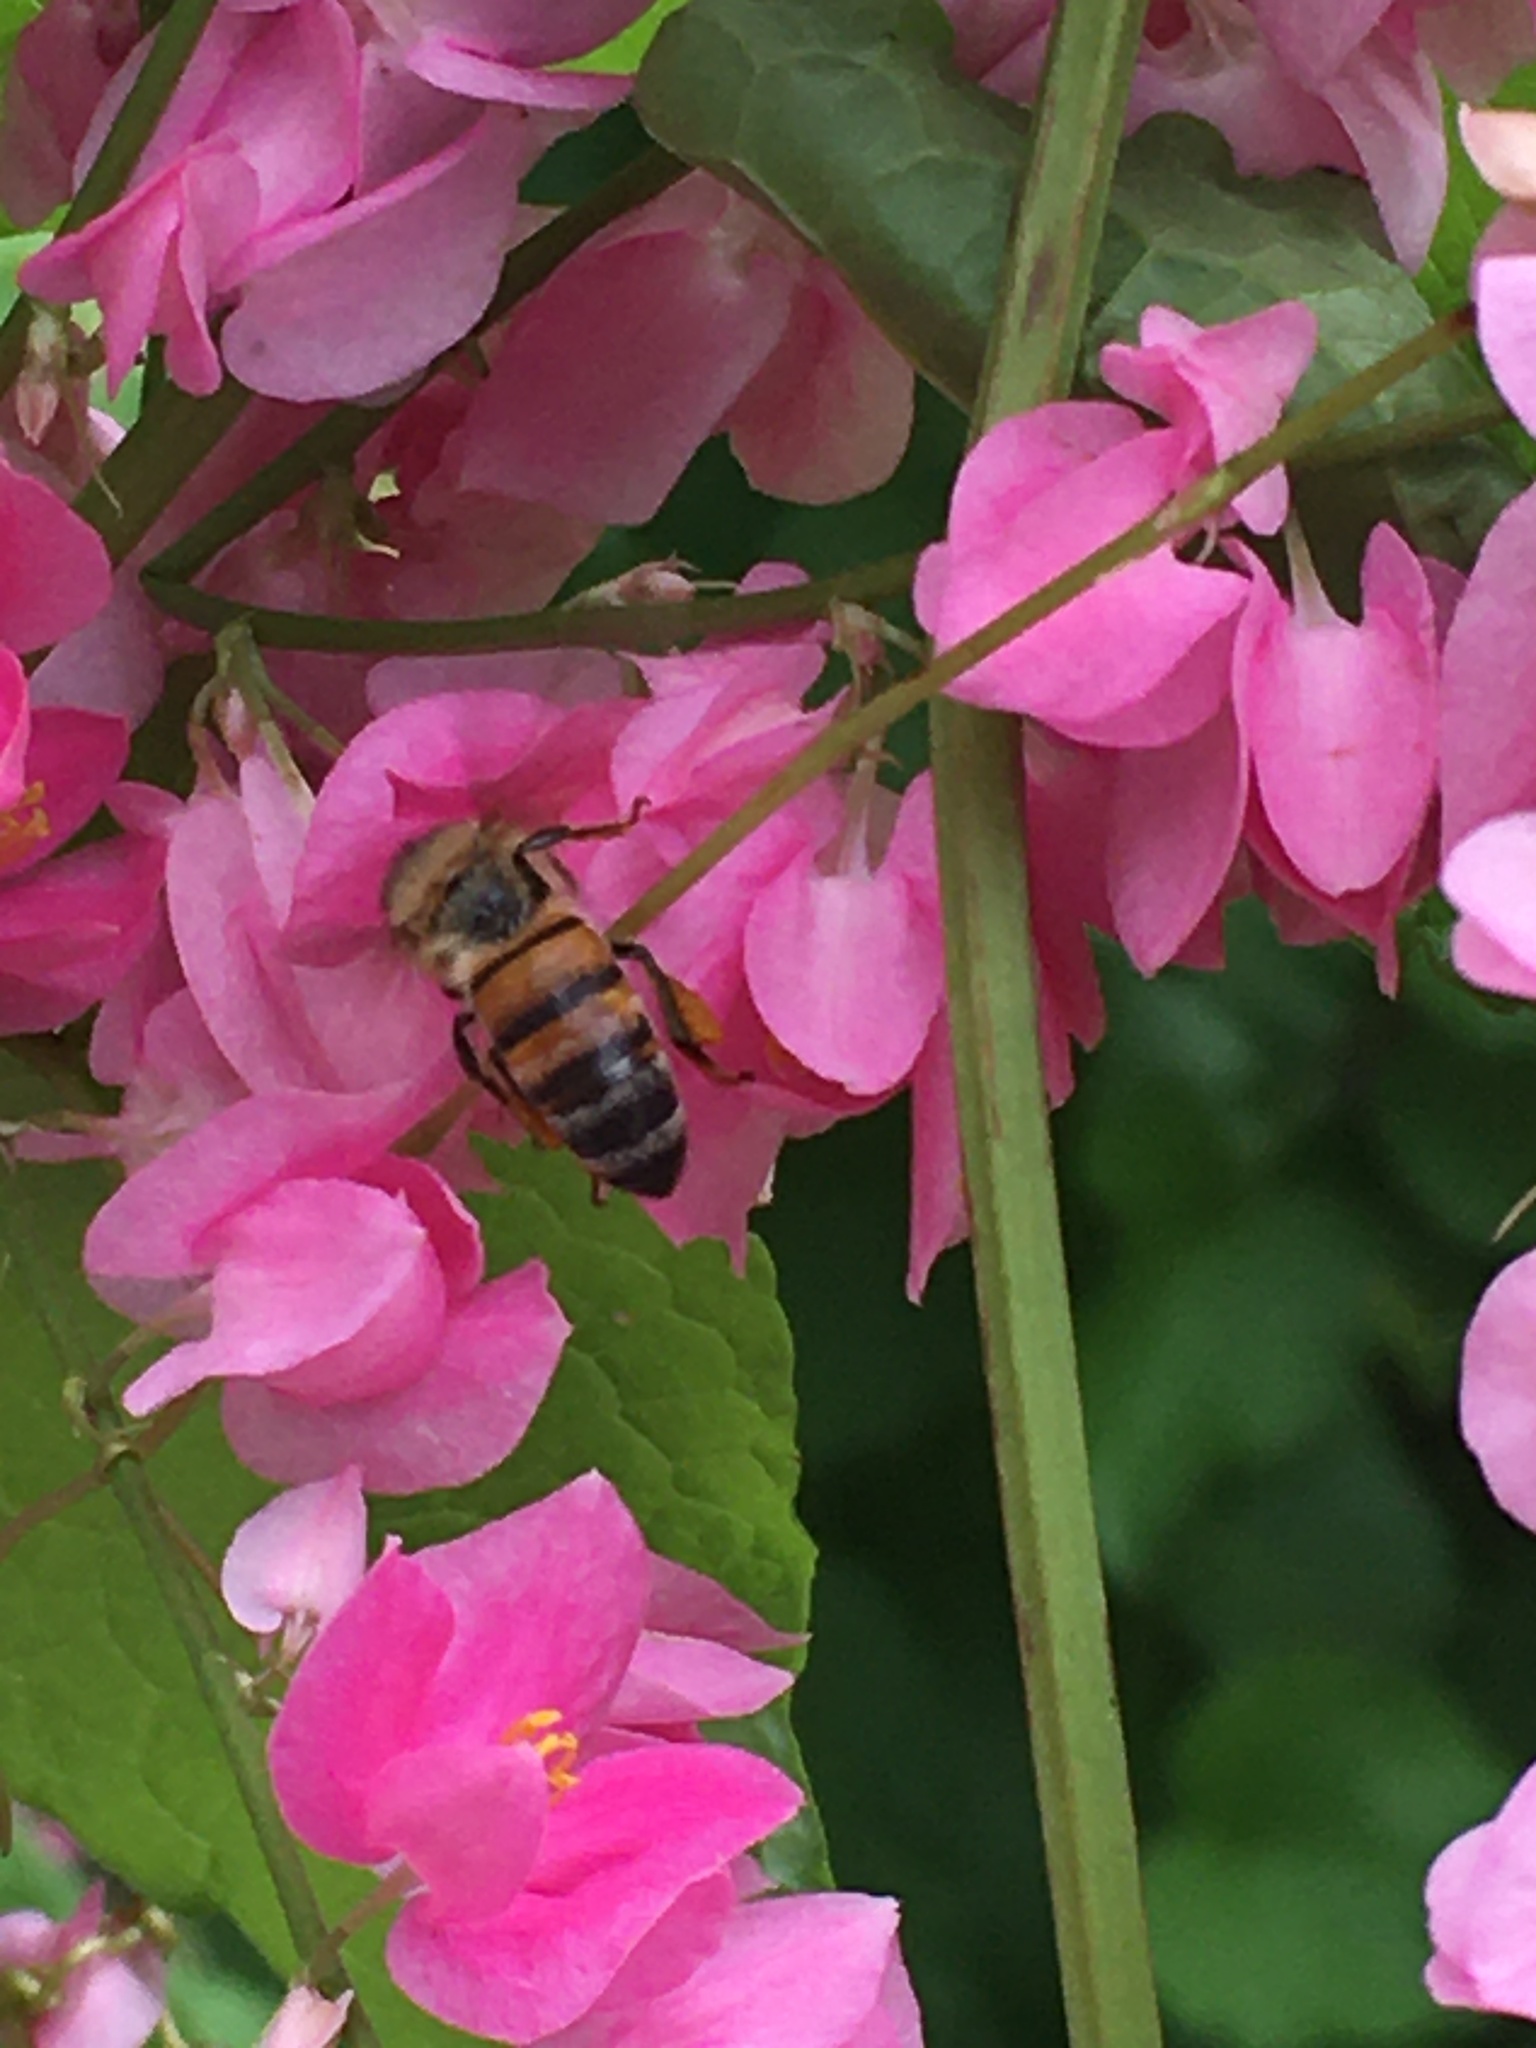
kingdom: Animalia
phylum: Arthropoda
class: Insecta
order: Hymenoptera
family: Apidae
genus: Apis
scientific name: Apis mellifera
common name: Honey bee
